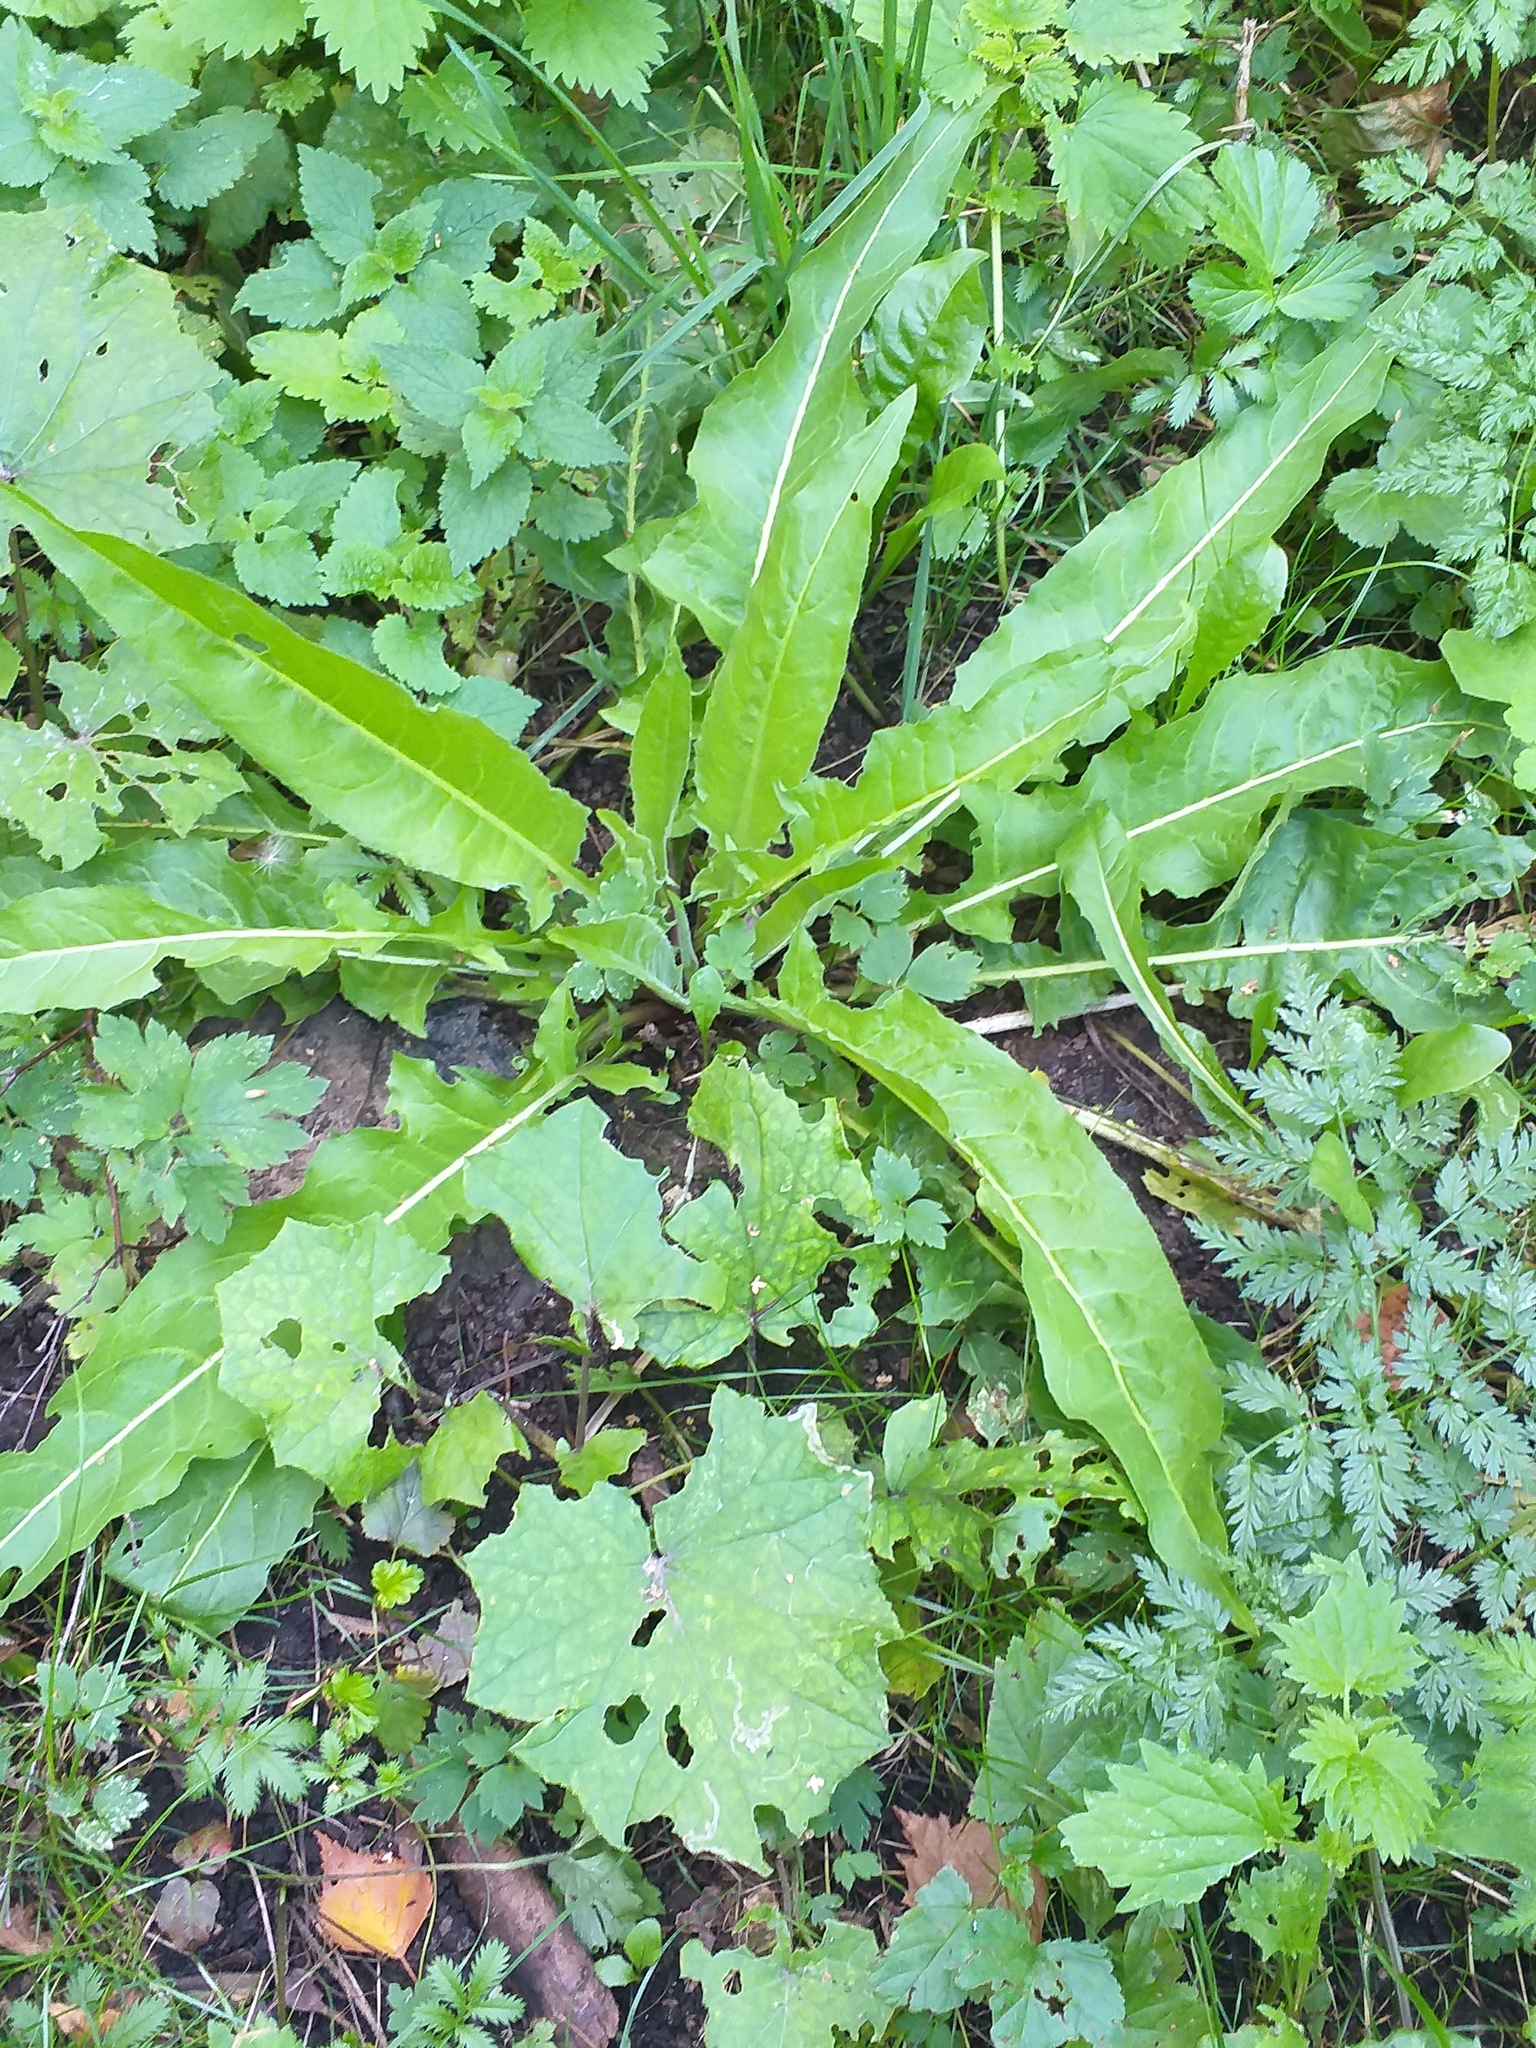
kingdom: Plantae
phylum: Tracheophyta
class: Magnoliopsida
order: Brassicales
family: Brassicaceae
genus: Bunias
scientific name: Bunias orientalis
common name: Warty-cabbage
